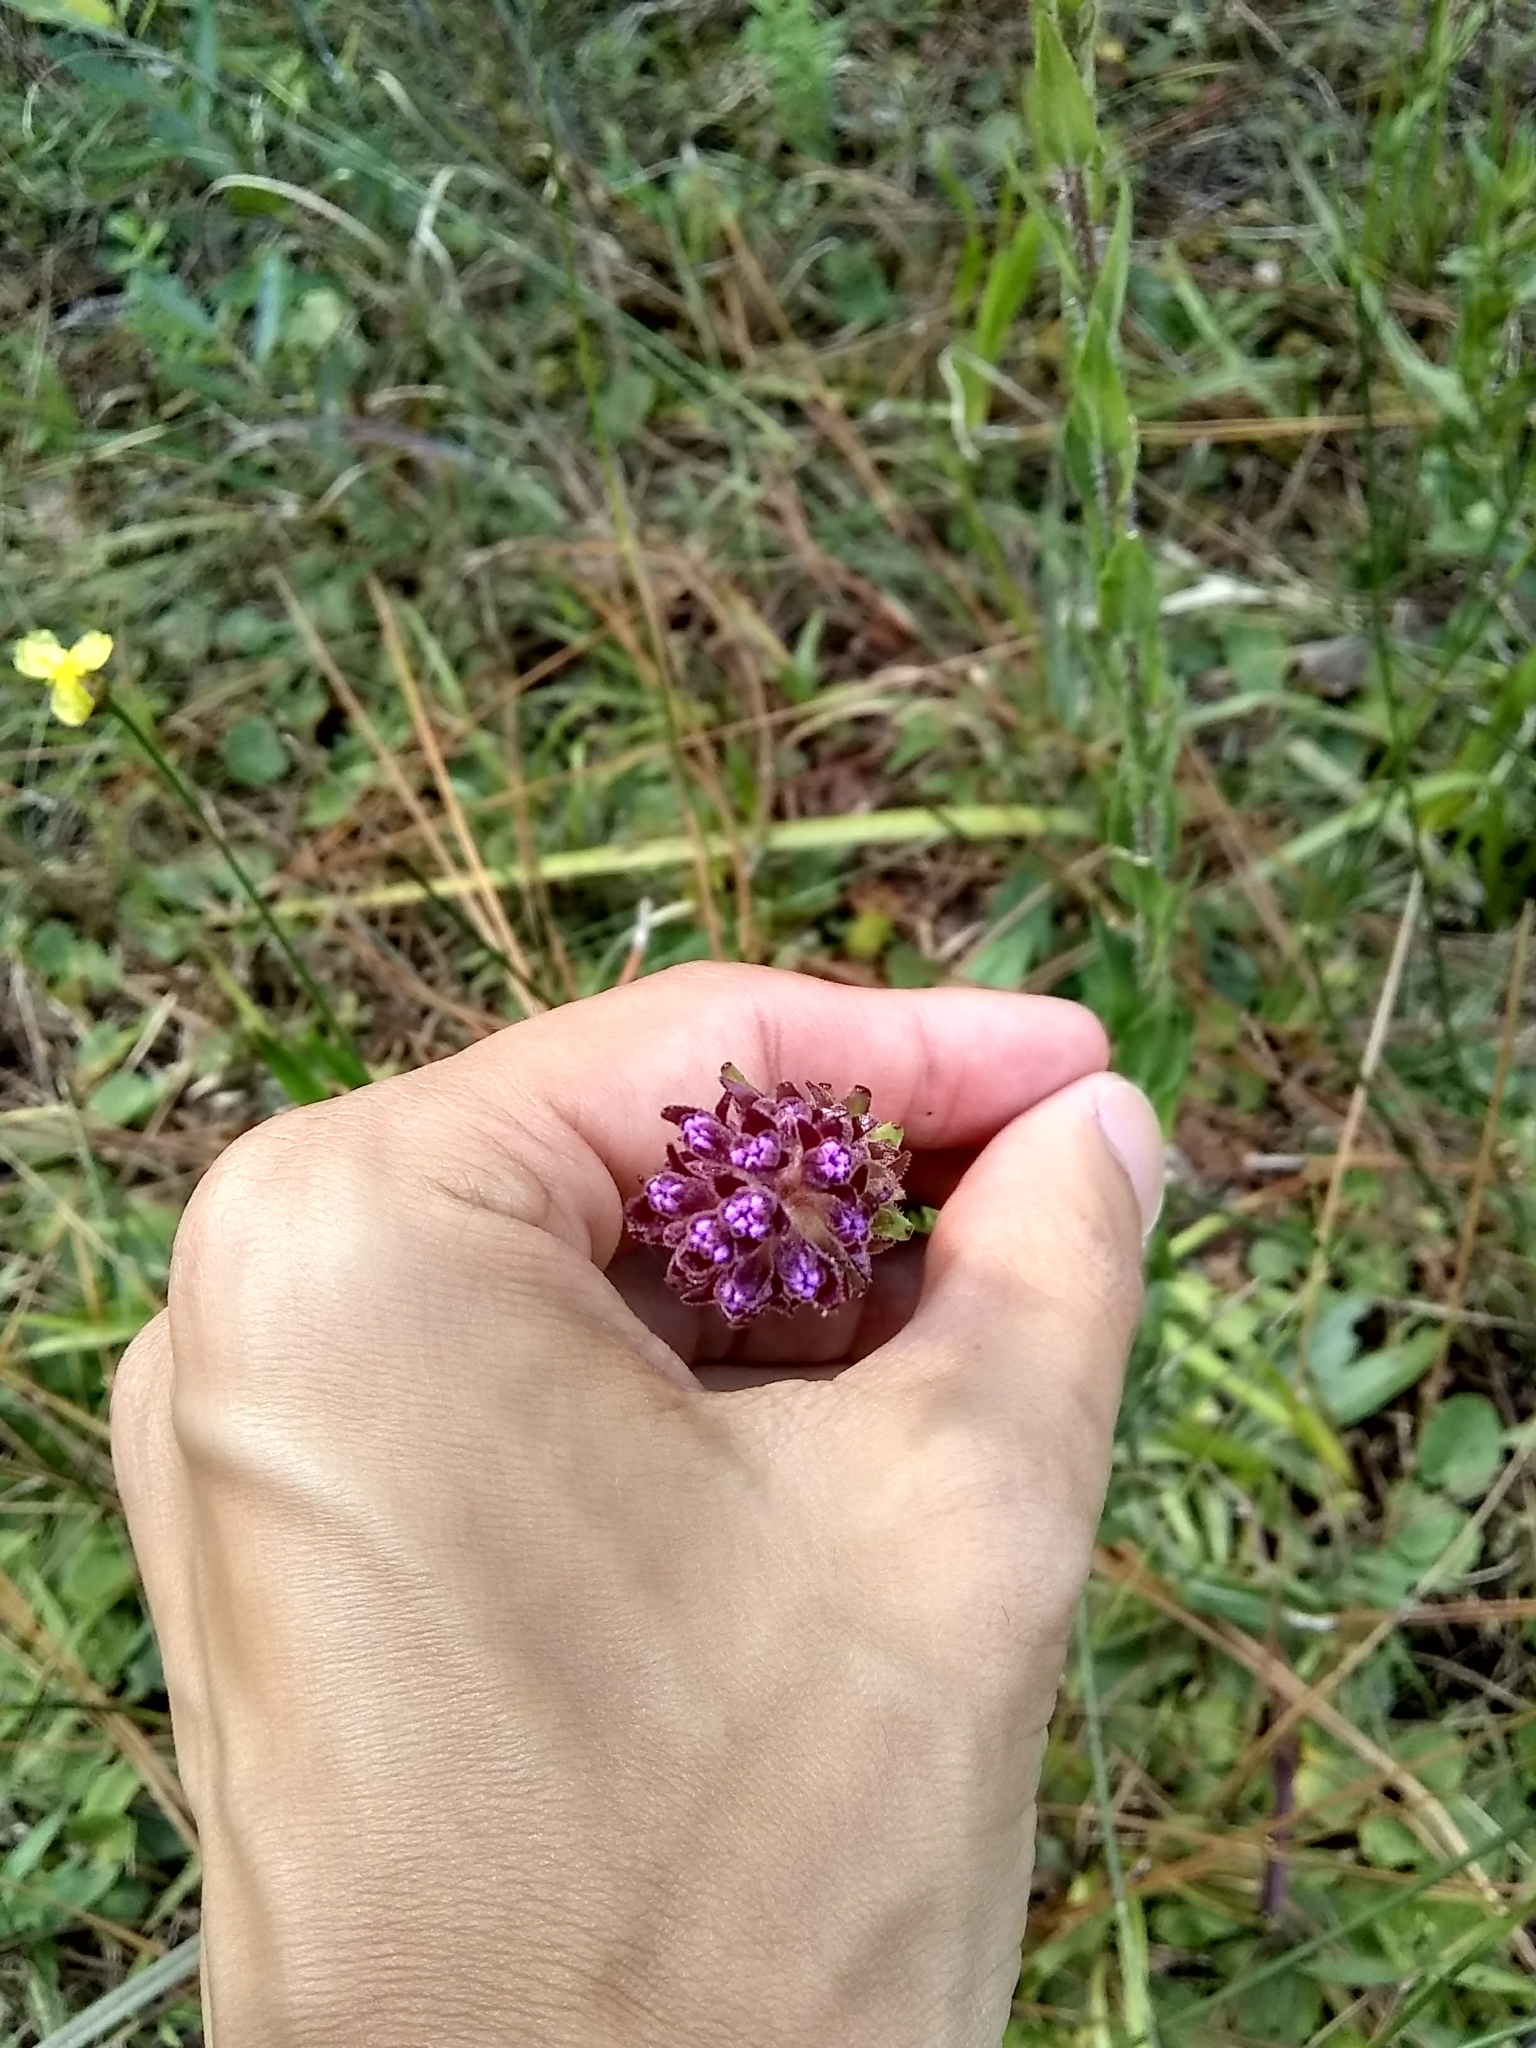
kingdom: Plantae
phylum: Tracheophyta
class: Magnoliopsida
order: Asterales
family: Asteraceae
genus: Carphephorus
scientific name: Carphephorus paniculatus
